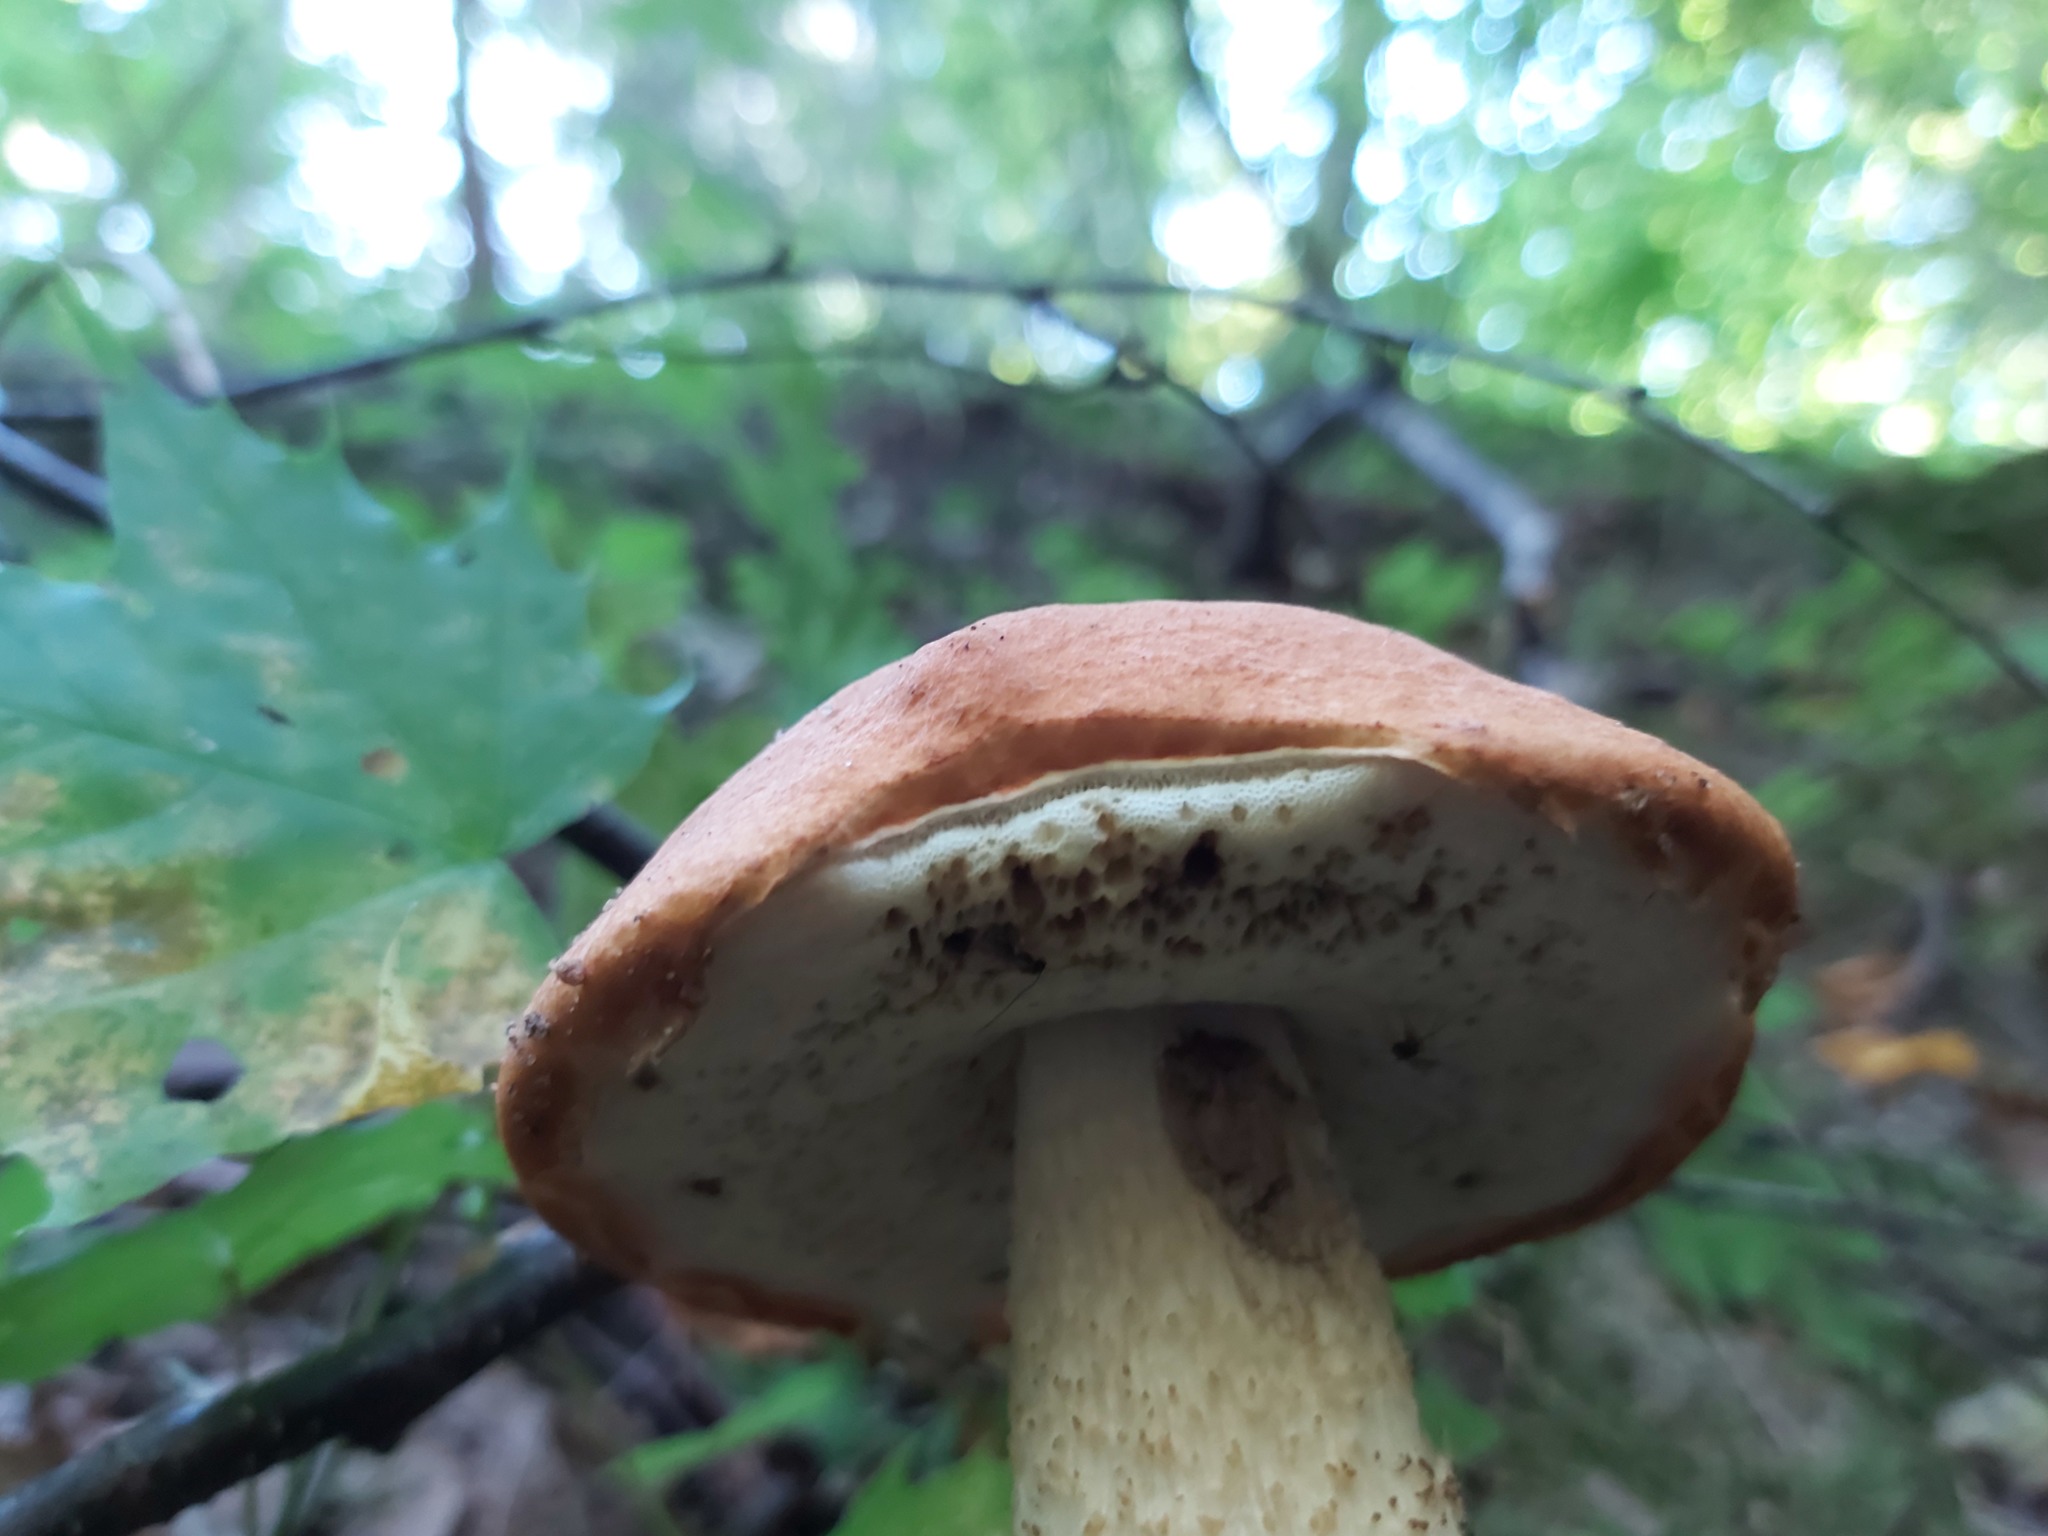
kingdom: Fungi
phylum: Basidiomycota
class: Agaricomycetes
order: Boletales
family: Boletaceae
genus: Leccinum
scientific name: Leccinum albostipitatum
